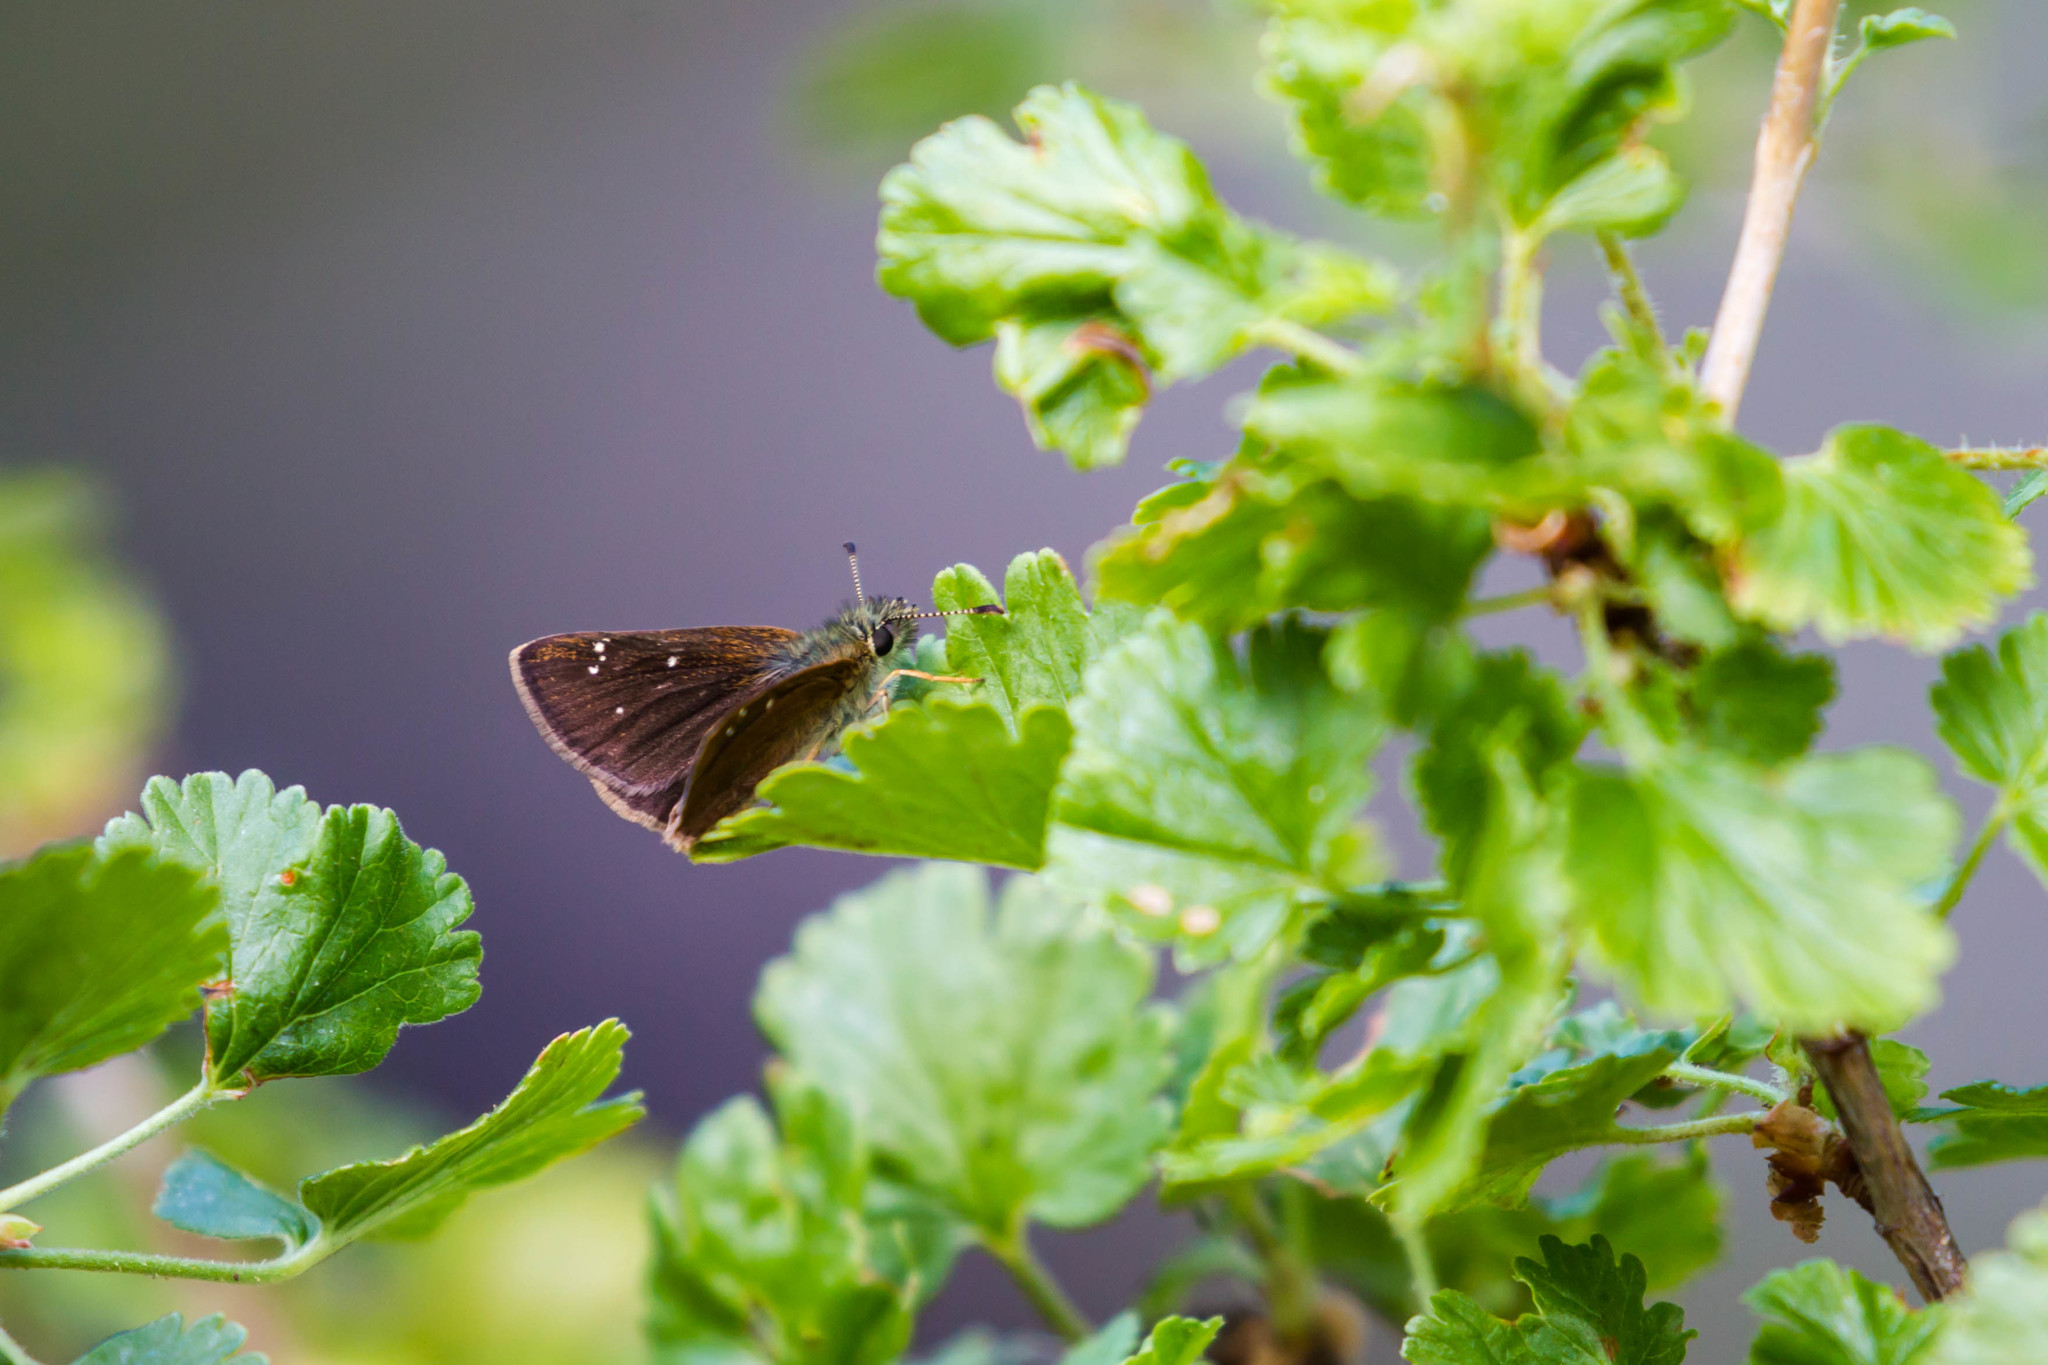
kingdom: Animalia
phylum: Arthropoda
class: Insecta
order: Lepidoptera
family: Hesperiidae
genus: Piruna
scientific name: Piruna pirus
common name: Russet skipperling
